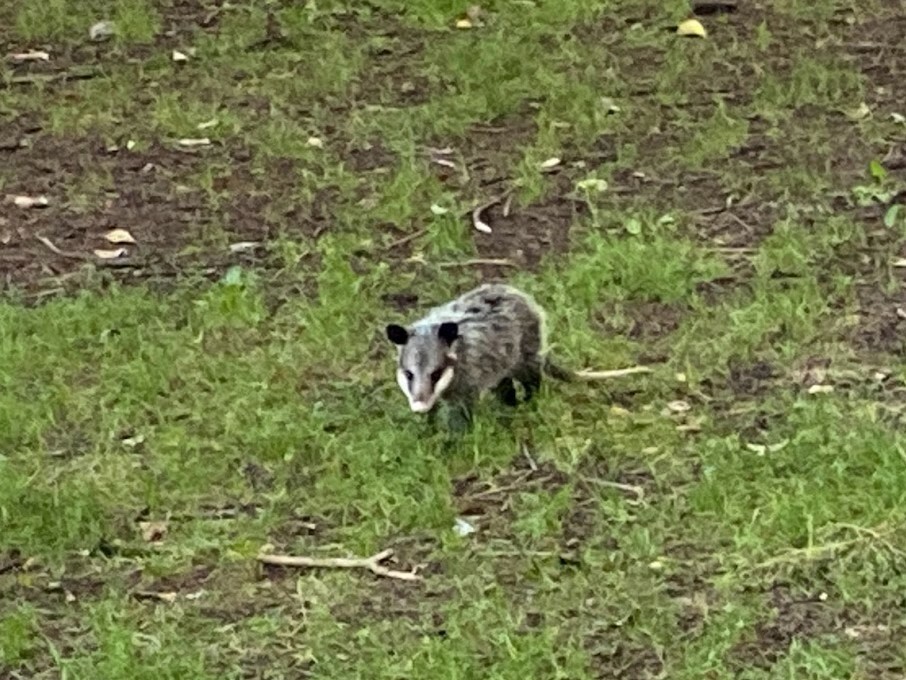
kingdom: Animalia
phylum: Chordata
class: Mammalia
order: Didelphimorphia
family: Didelphidae
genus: Didelphis
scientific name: Didelphis virginiana
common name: Virginia opossum
